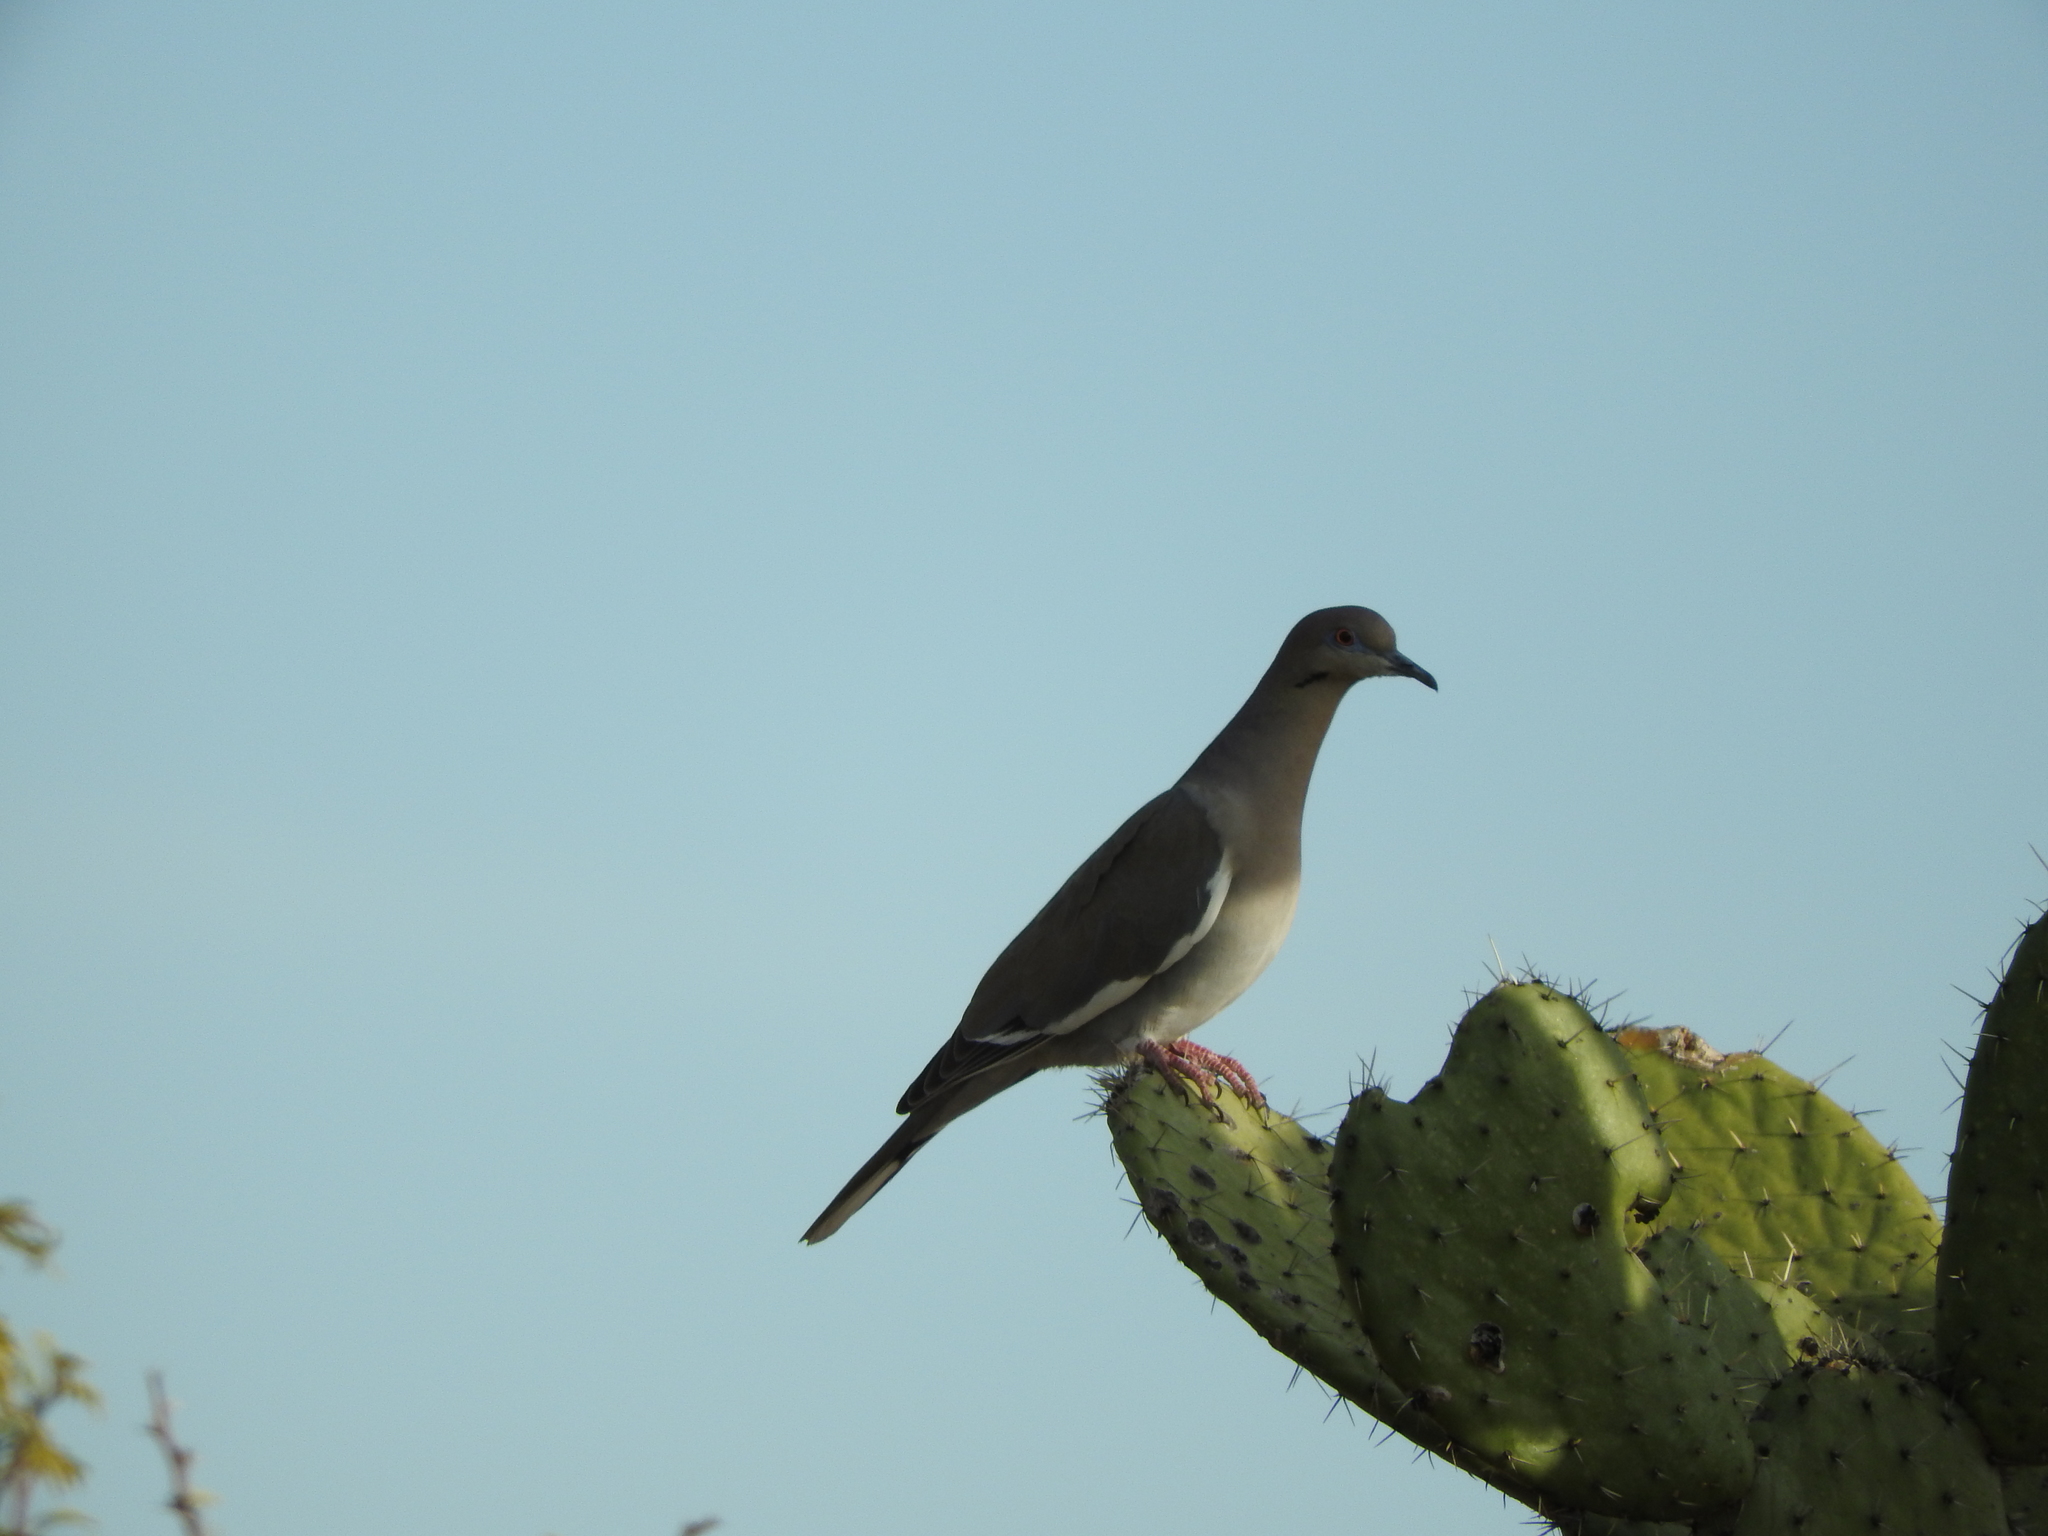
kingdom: Animalia
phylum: Chordata
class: Aves
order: Columbiformes
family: Columbidae
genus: Zenaida
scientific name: Zenaida asiatica
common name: White-winged dove
